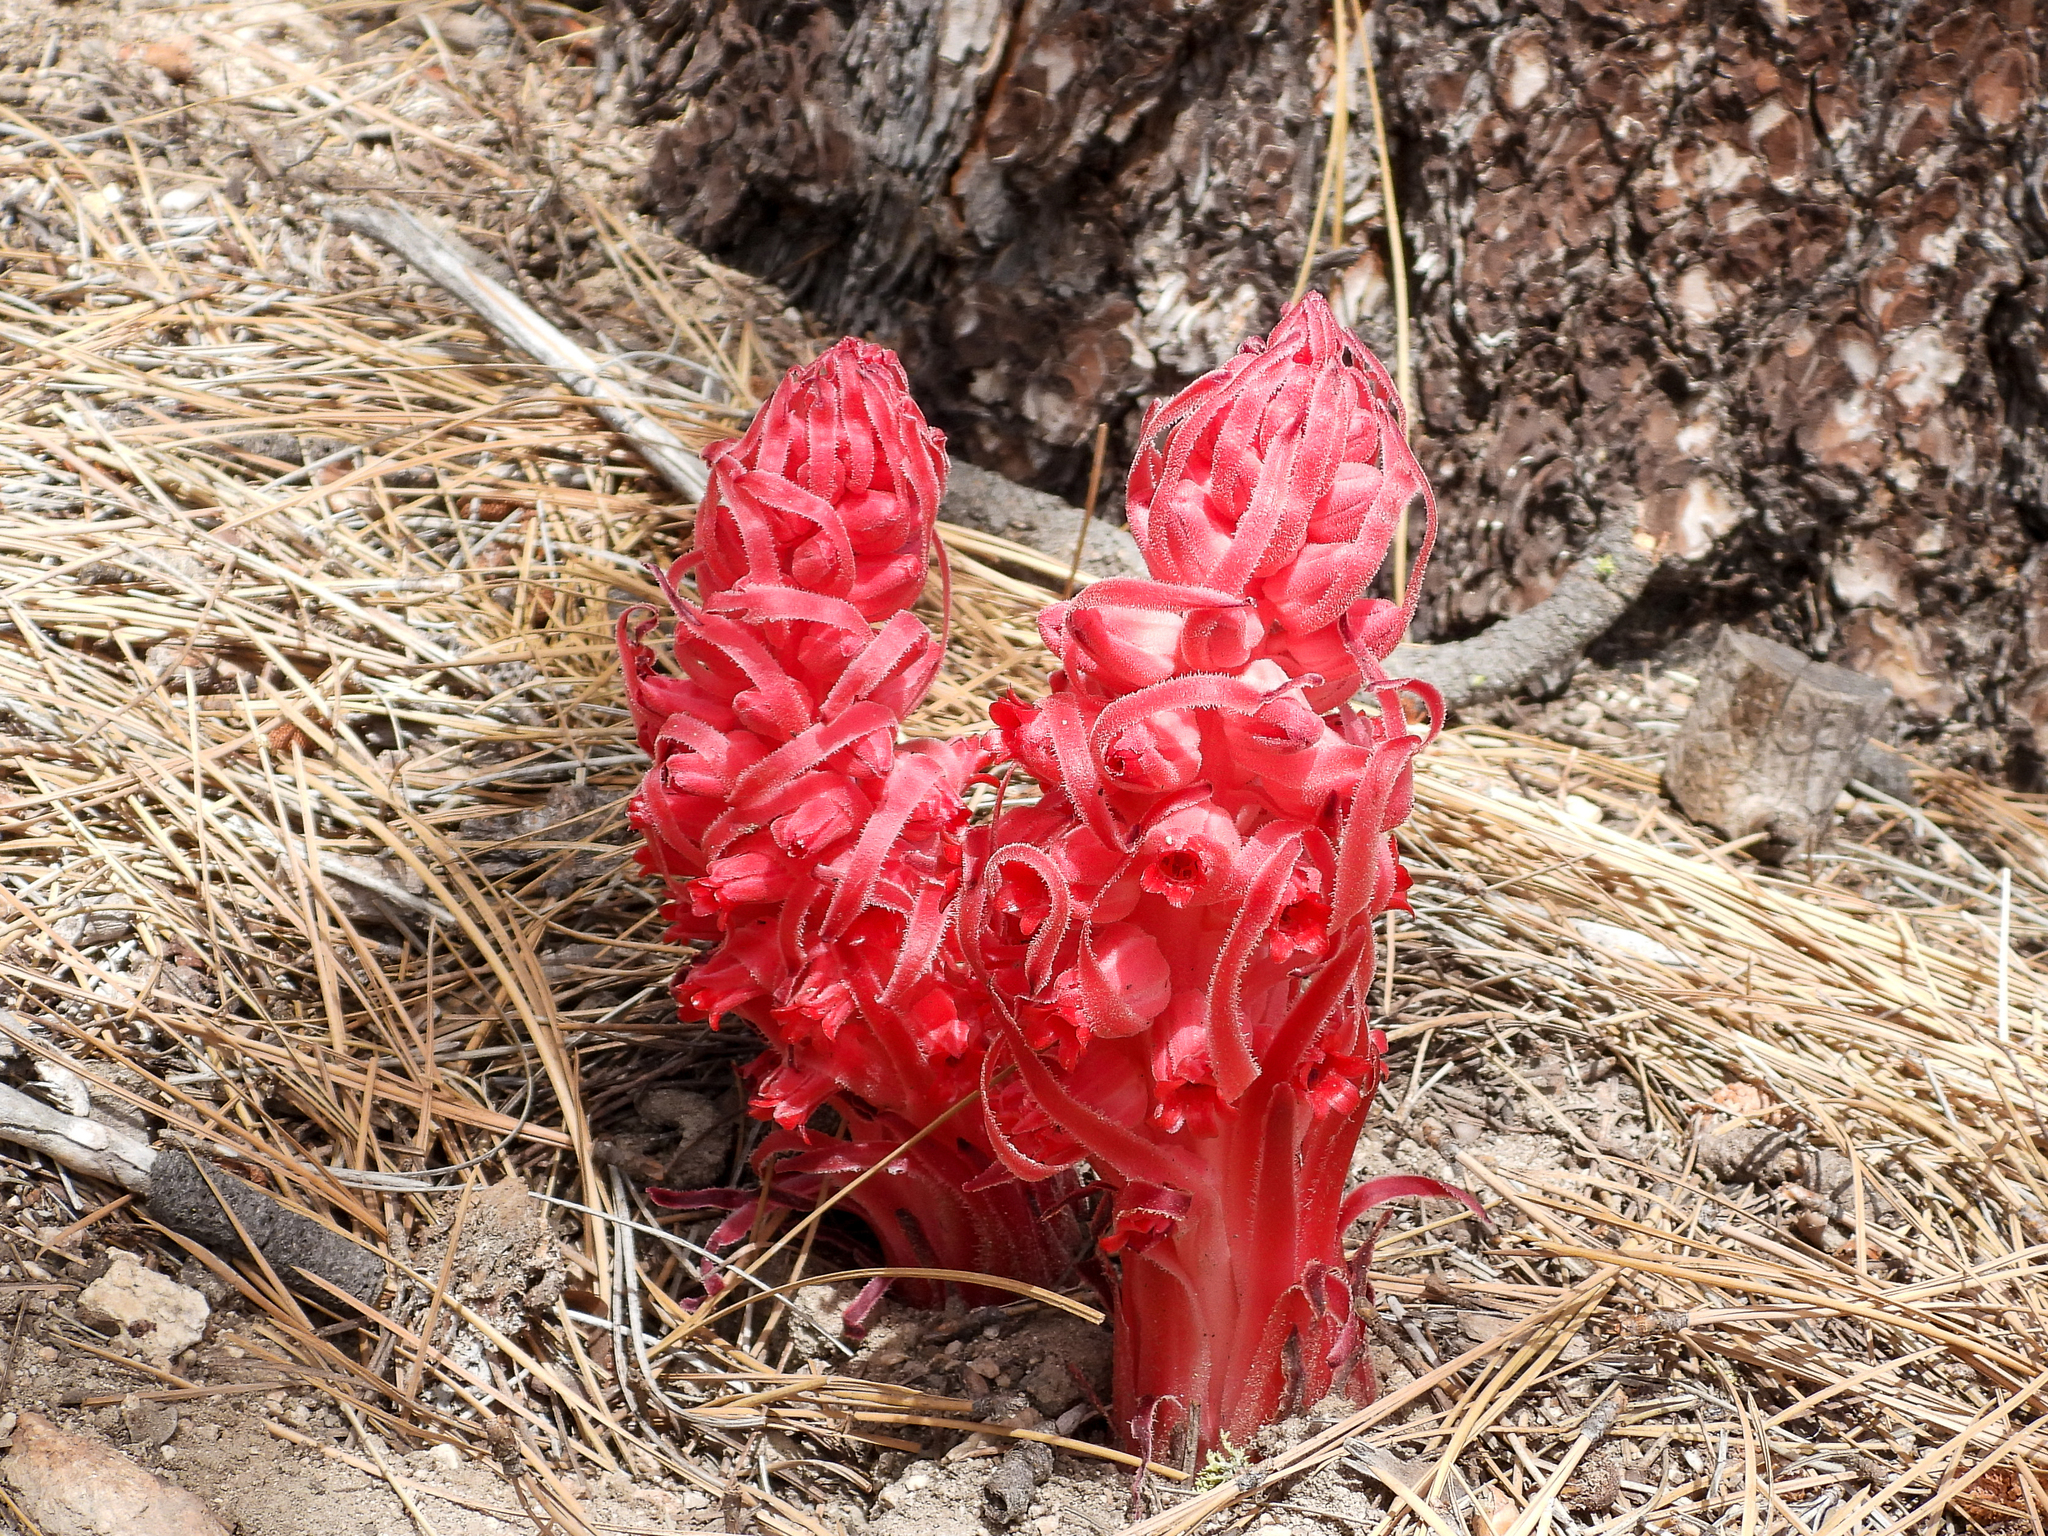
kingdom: Plantae
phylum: Tracheophyta
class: Magnoliopsida
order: Ericales
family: Ericaceae
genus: Sarcodes
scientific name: Sarcodes sanguinea
